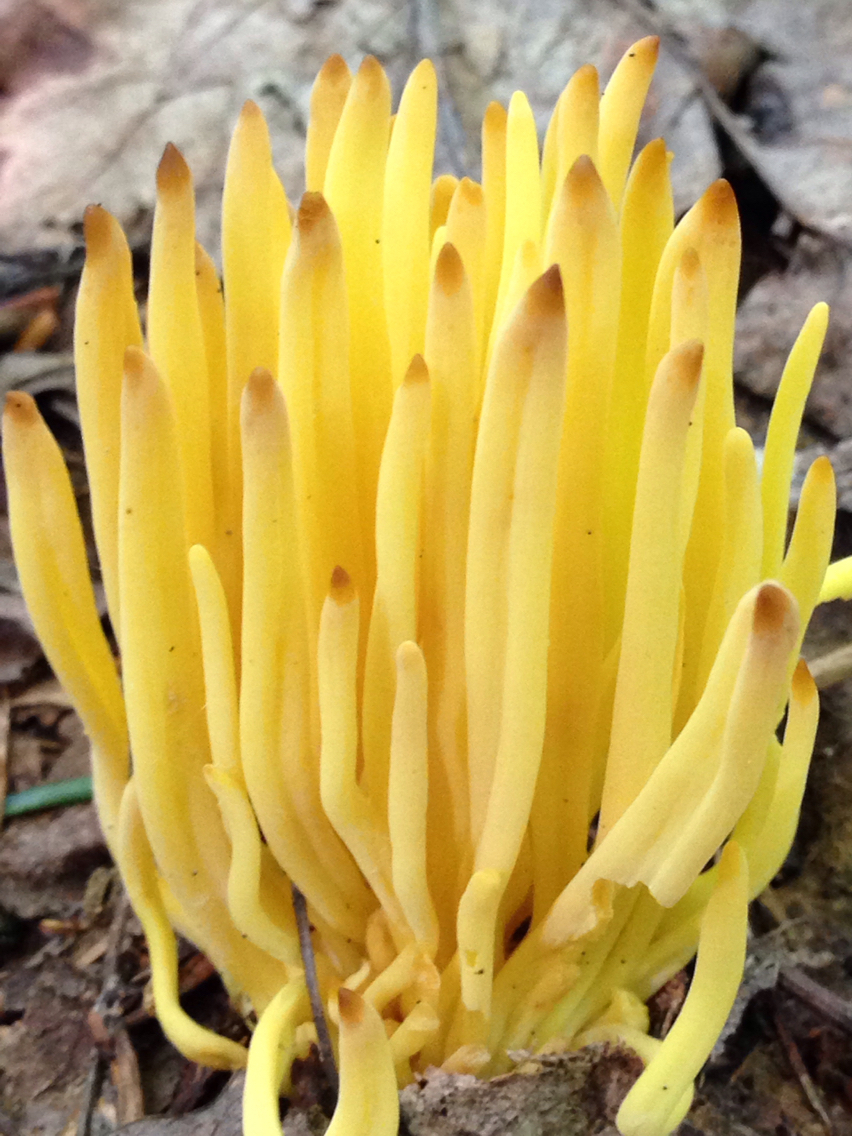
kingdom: Fungi
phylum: Basidiomycota
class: Agaricomycetes
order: Agaricales
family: Clavariaceae
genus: Clavulinopsis
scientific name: Clavulinopsis fusiformis
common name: Golden spindles
